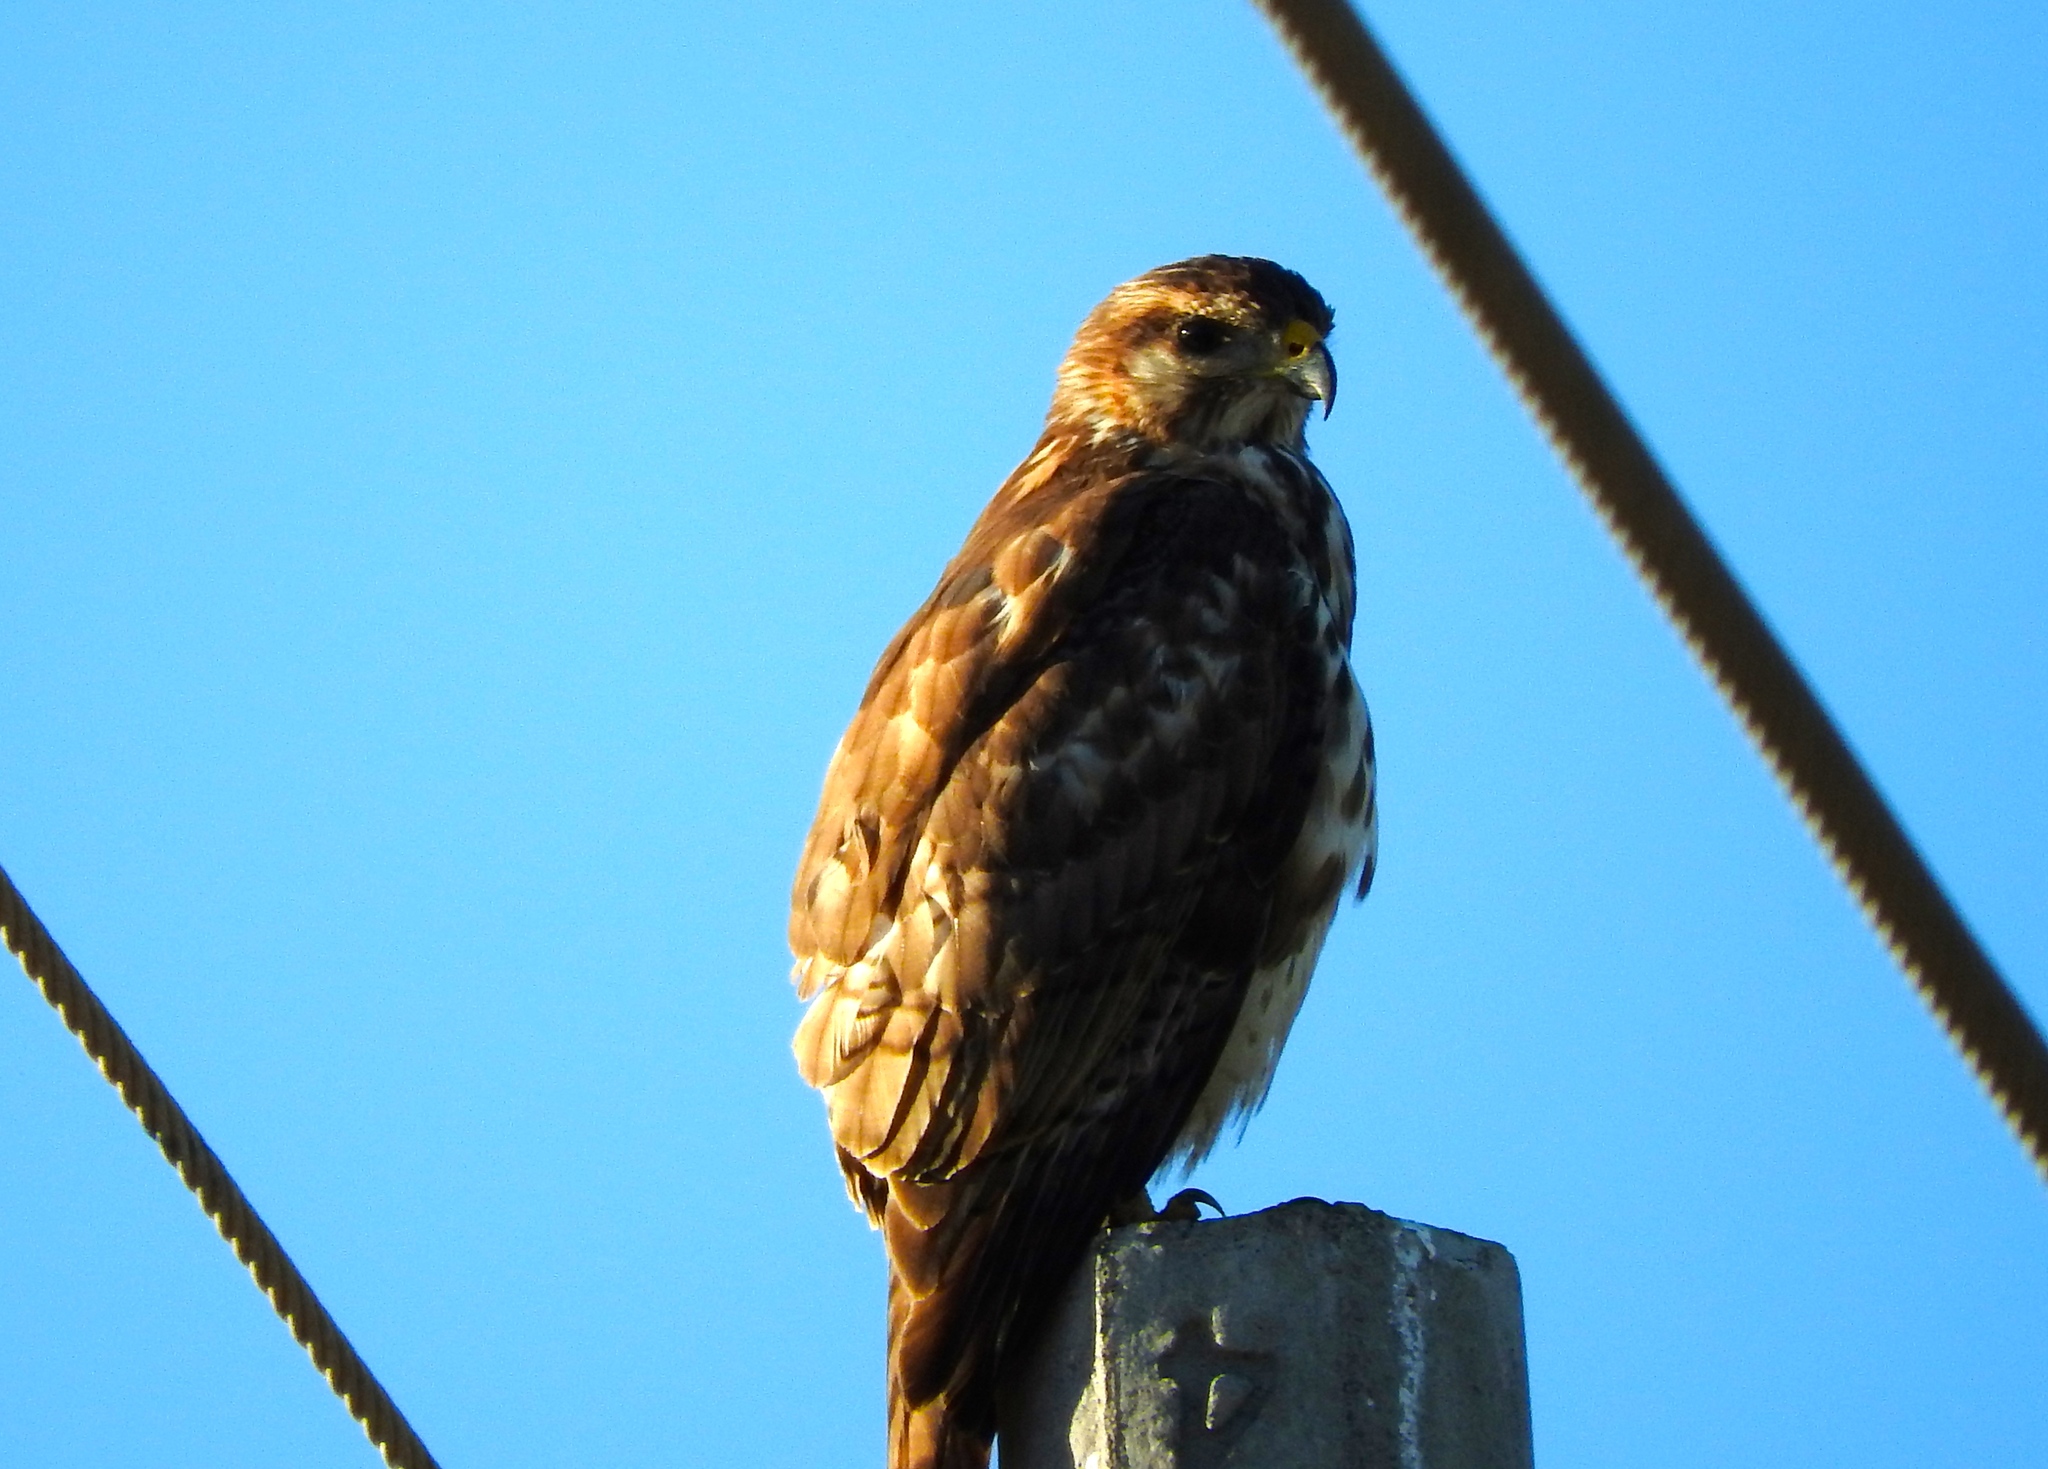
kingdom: Animalia
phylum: Chordata
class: Aves
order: Accipitriformes
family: Accipitridae
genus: Buteo
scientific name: Buteo nitidus
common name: Grey-lined hawk
